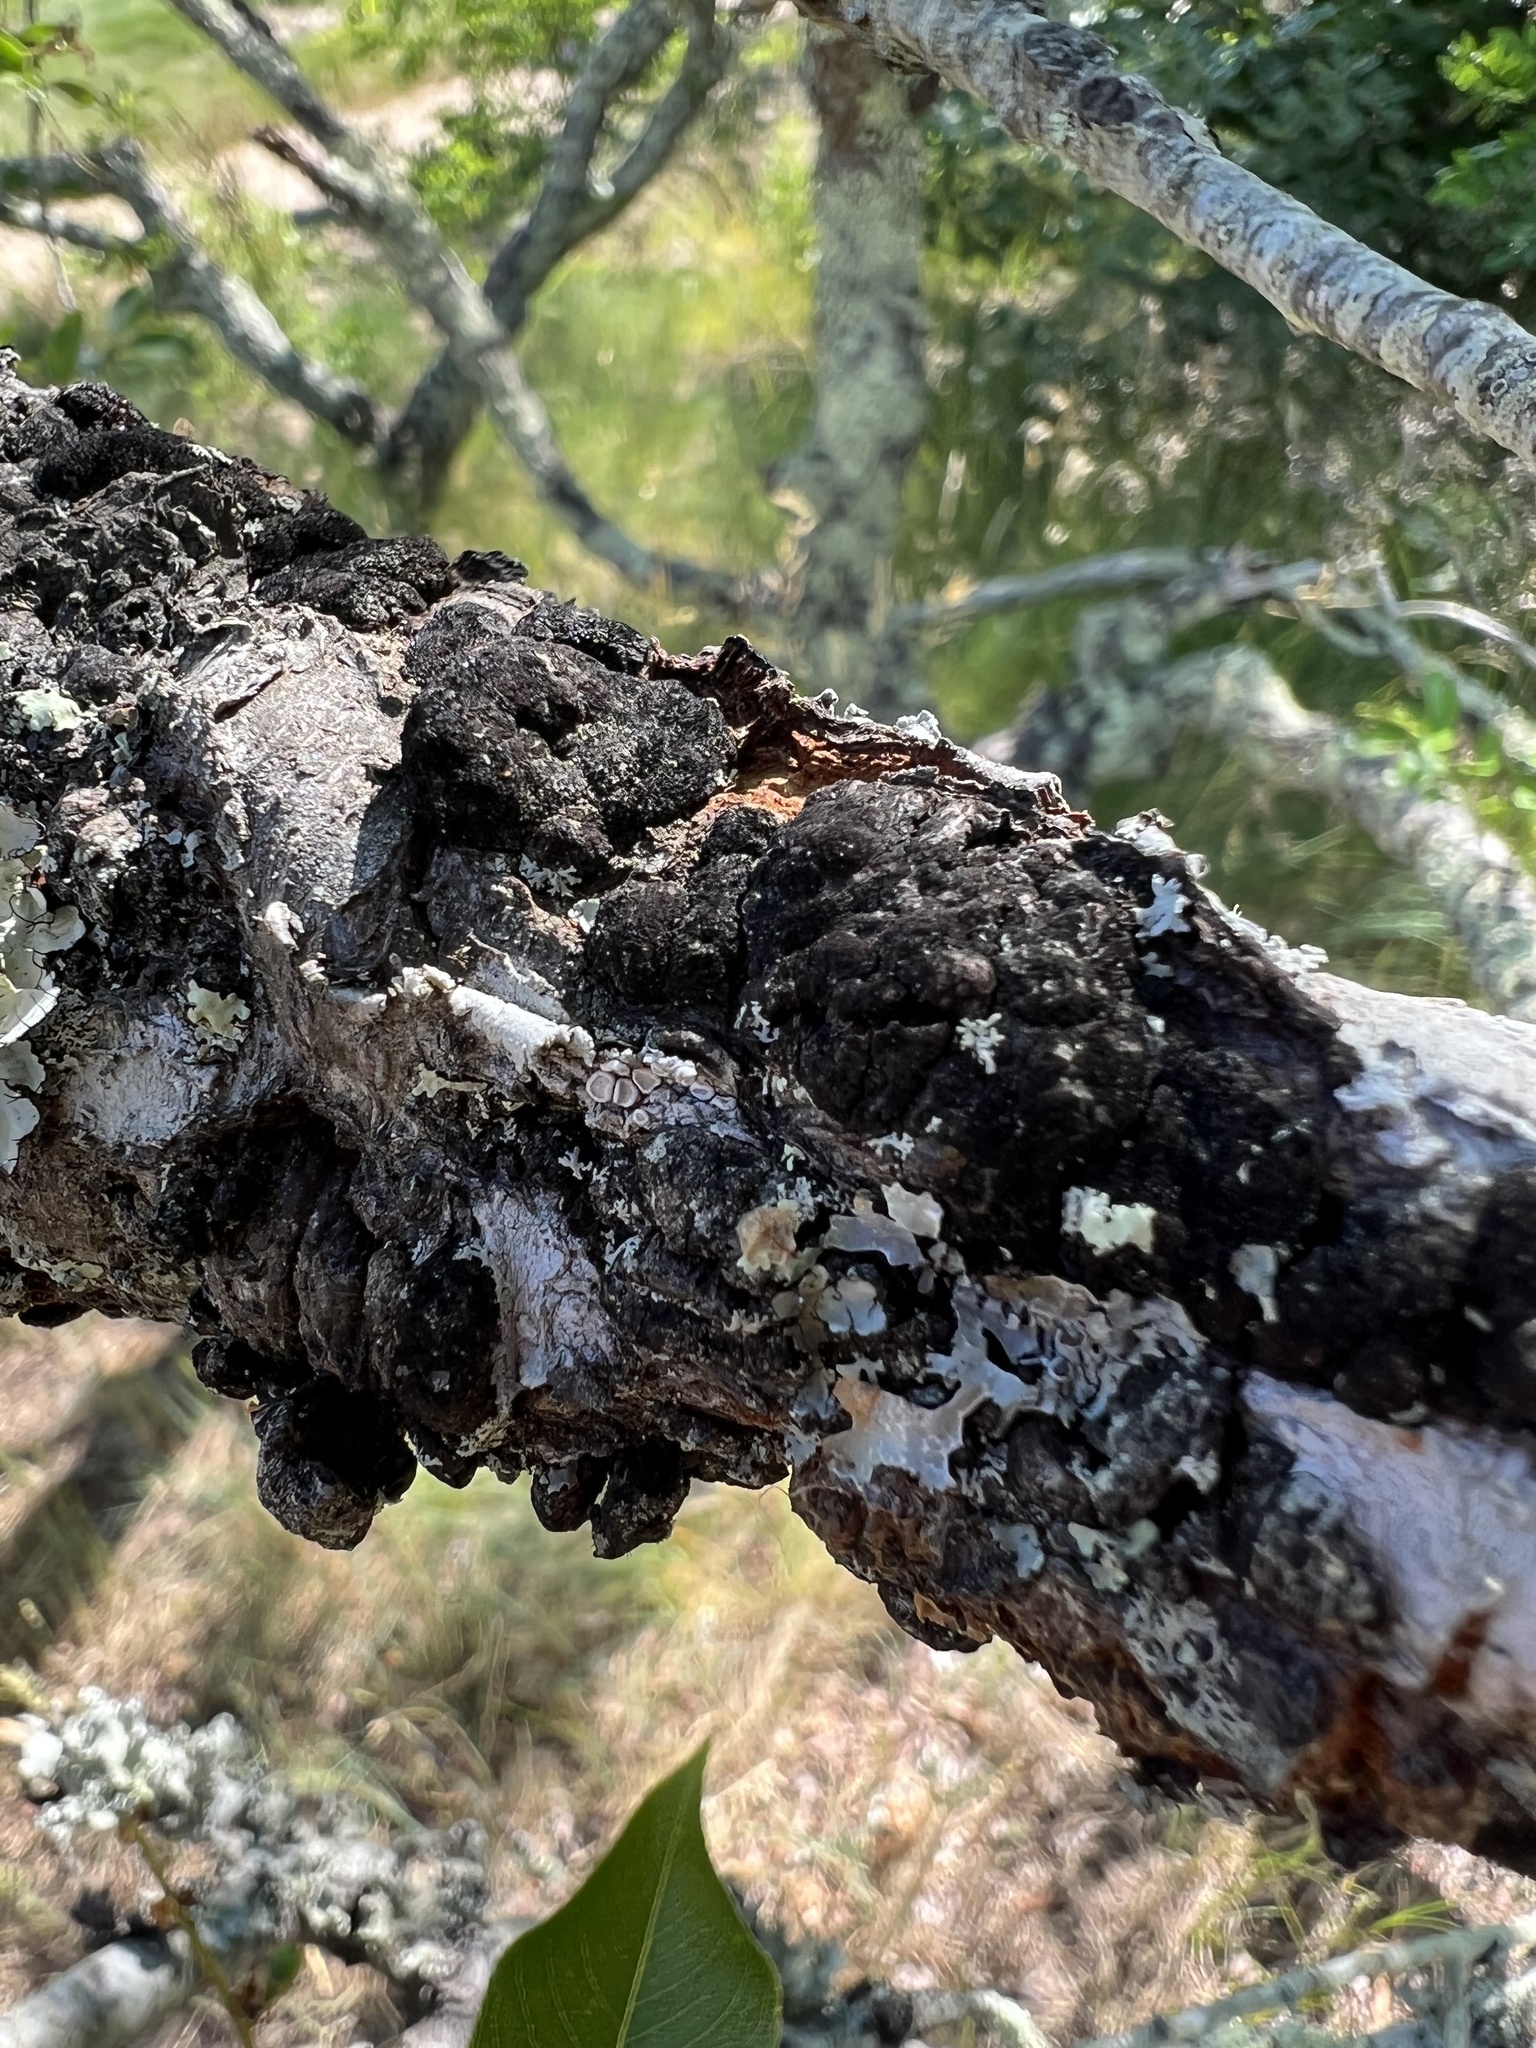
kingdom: Fungi
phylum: Ascomycota
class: Dothideomycetes
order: Venturiales
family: Venturiaceae
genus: Apiosporina
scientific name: Apiosporina morbosa
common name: Black knot
